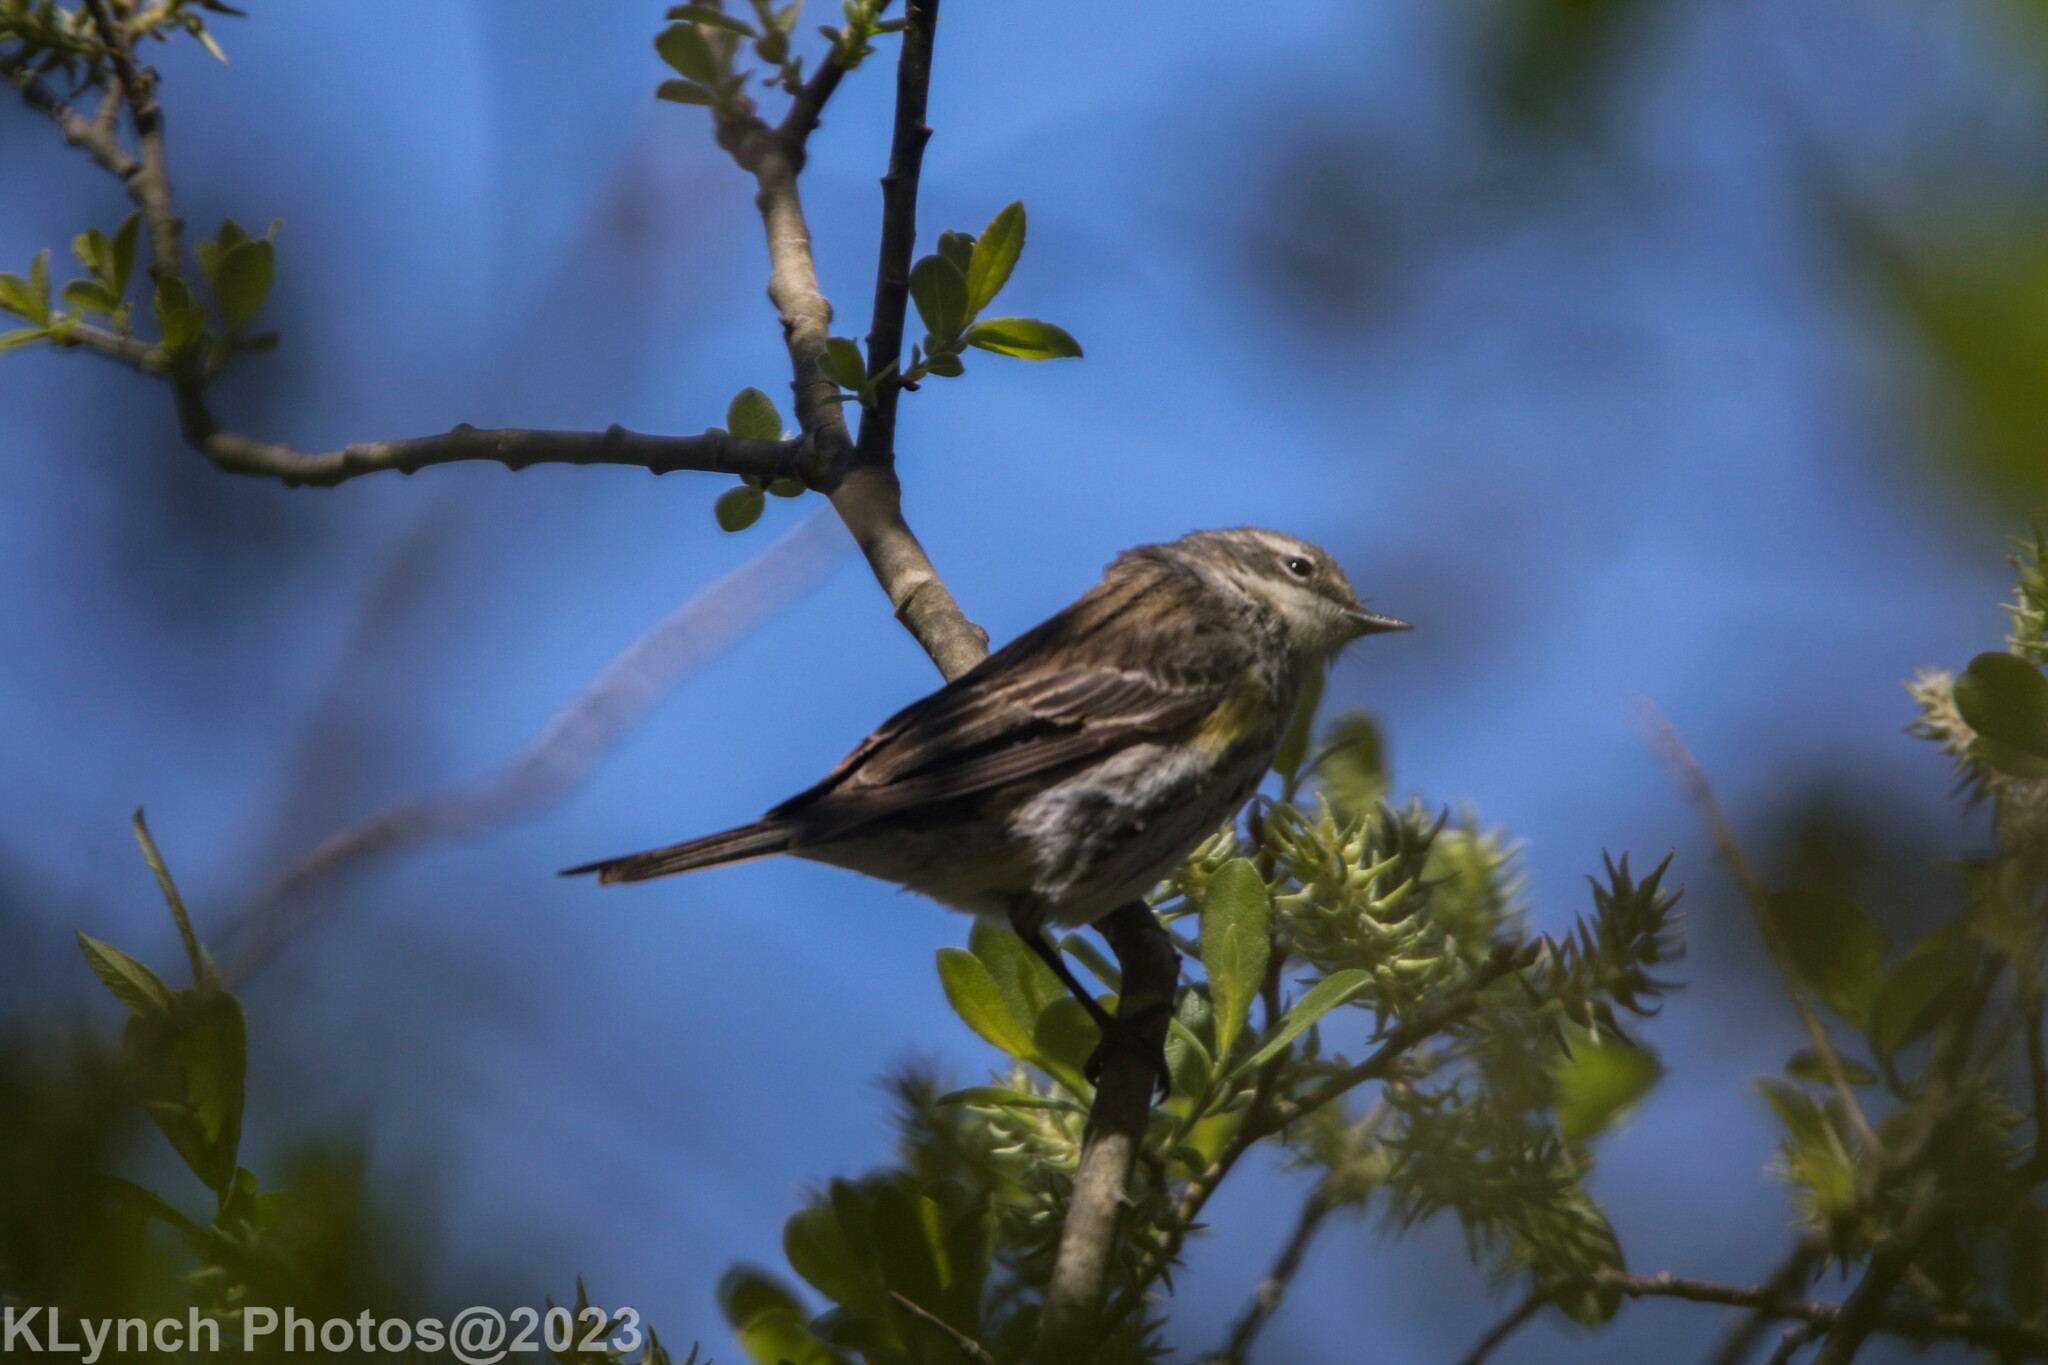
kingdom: Animalia
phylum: Chordata
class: Aves
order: Passeriformes
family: Parulidae
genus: Setophaga
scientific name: Setophaga coronata
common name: Myrtle warbler
